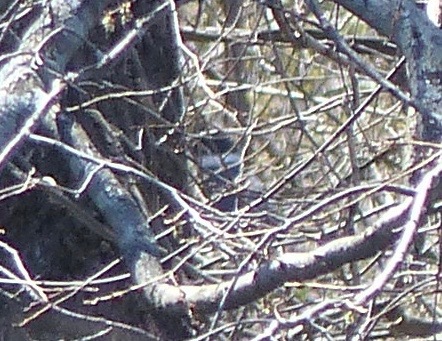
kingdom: Animalia
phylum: Chordata
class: Aves
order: Coraciiformes
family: Alcedinidae
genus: Megaceryle
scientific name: Megaceryle alcyon
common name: Belted kingfisher
